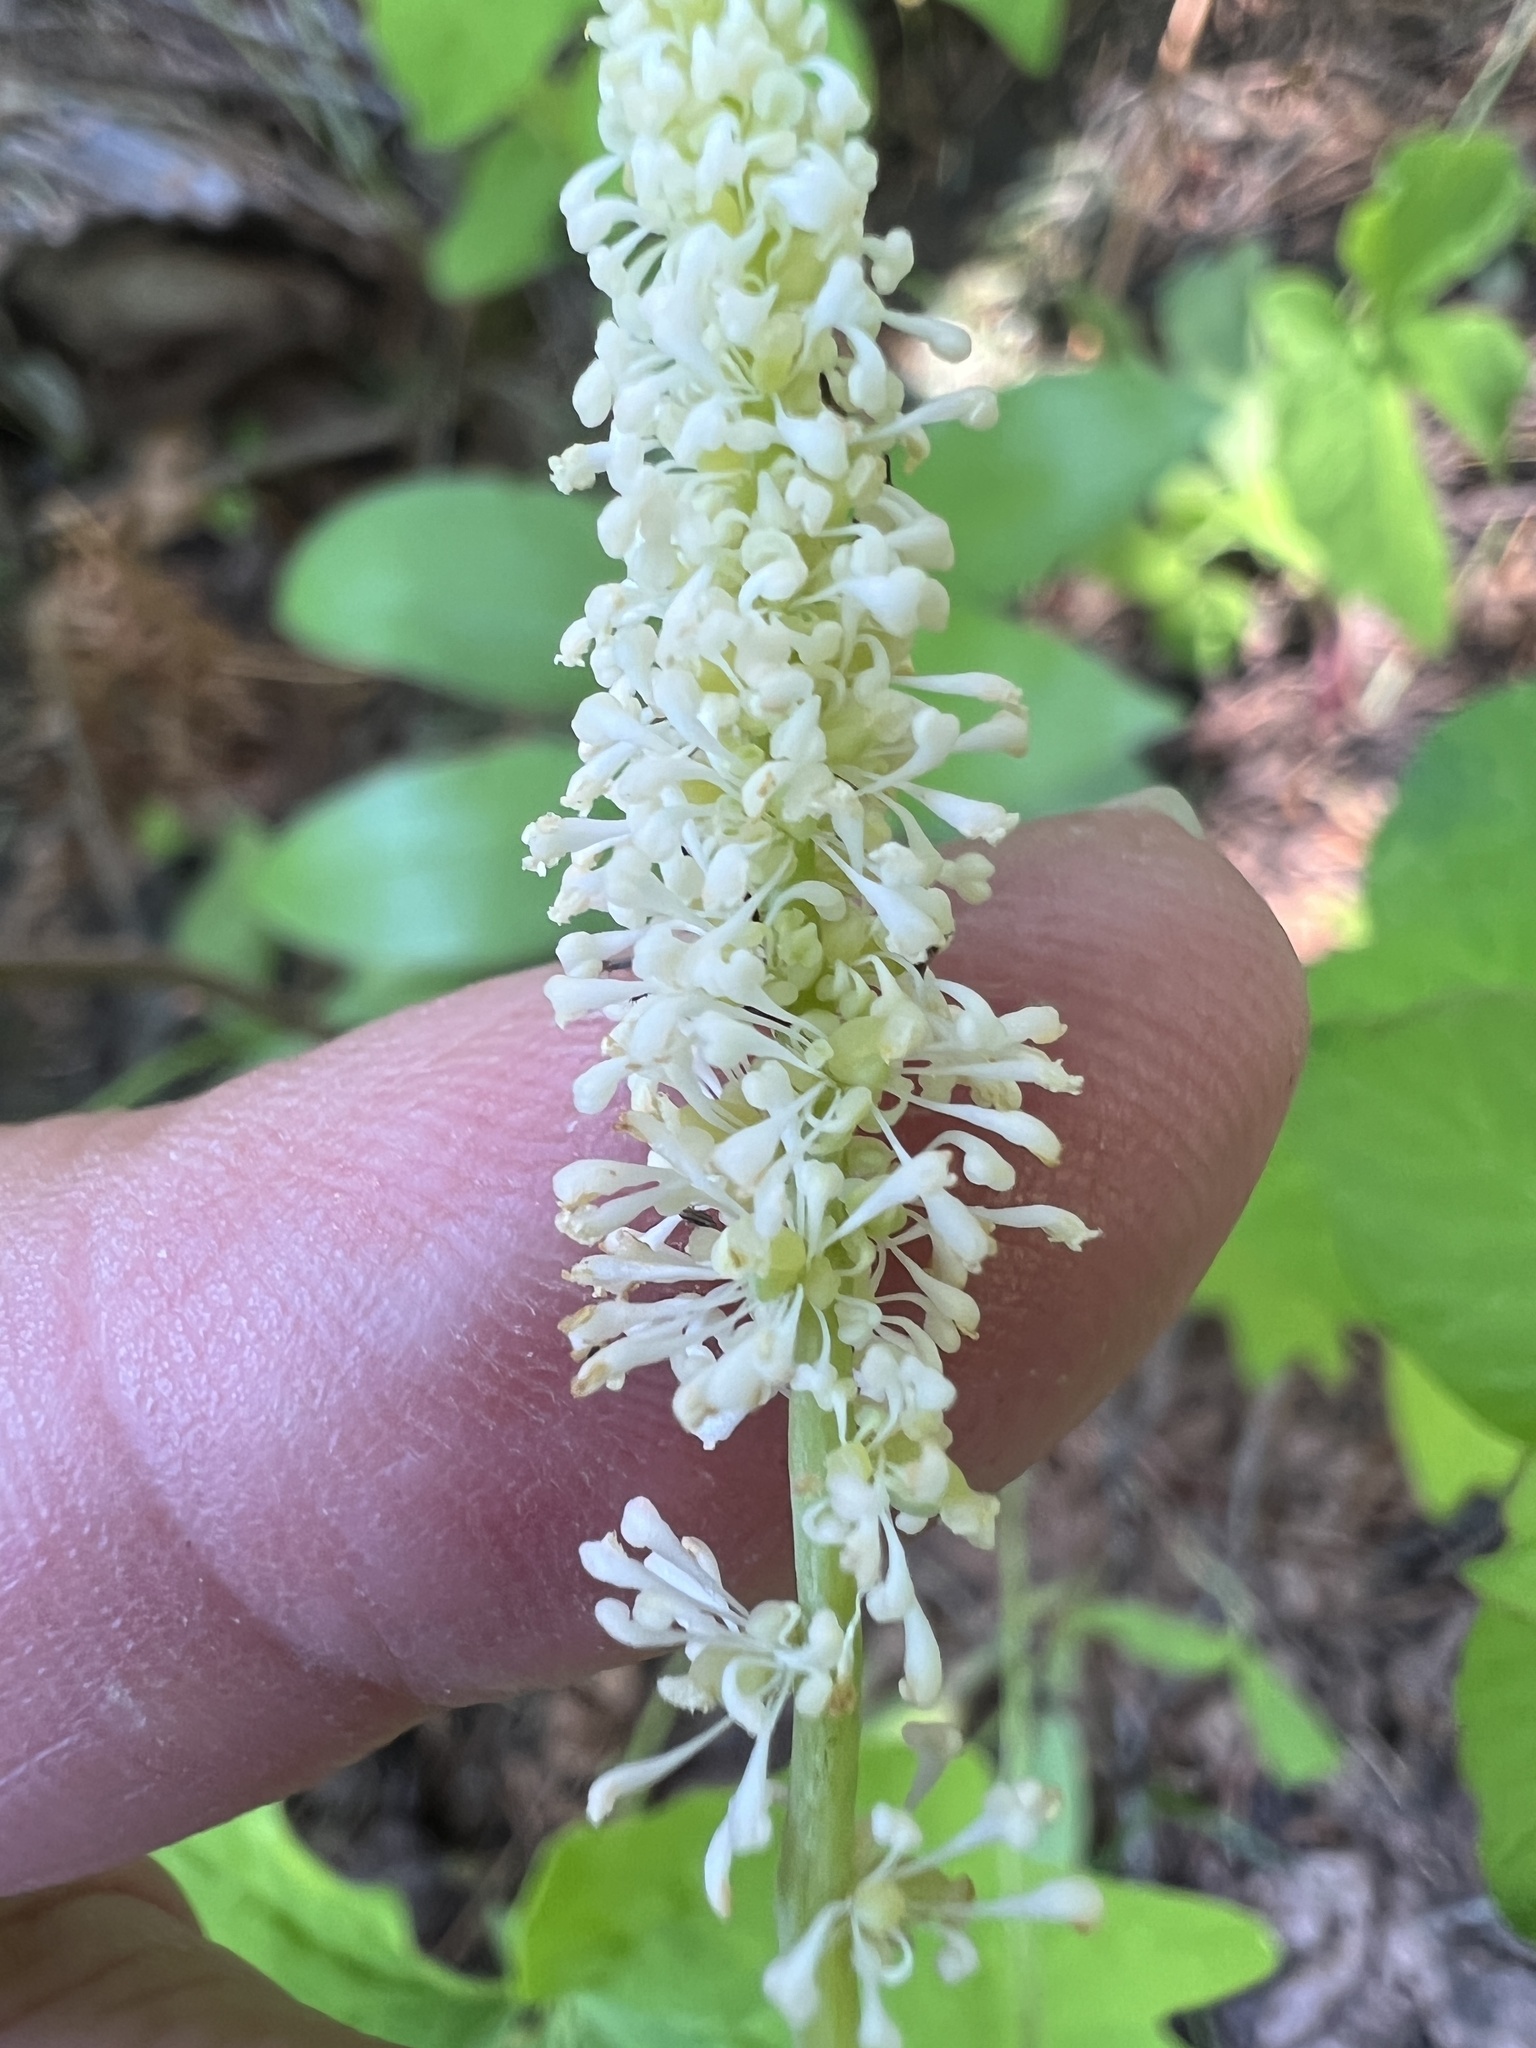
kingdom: Plantae
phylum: Tracheophyta
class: Magnoliopsida
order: Ranunculales
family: Berberidaceae
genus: Achlys
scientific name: Achlys triphylla
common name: Vanilla-leaf
